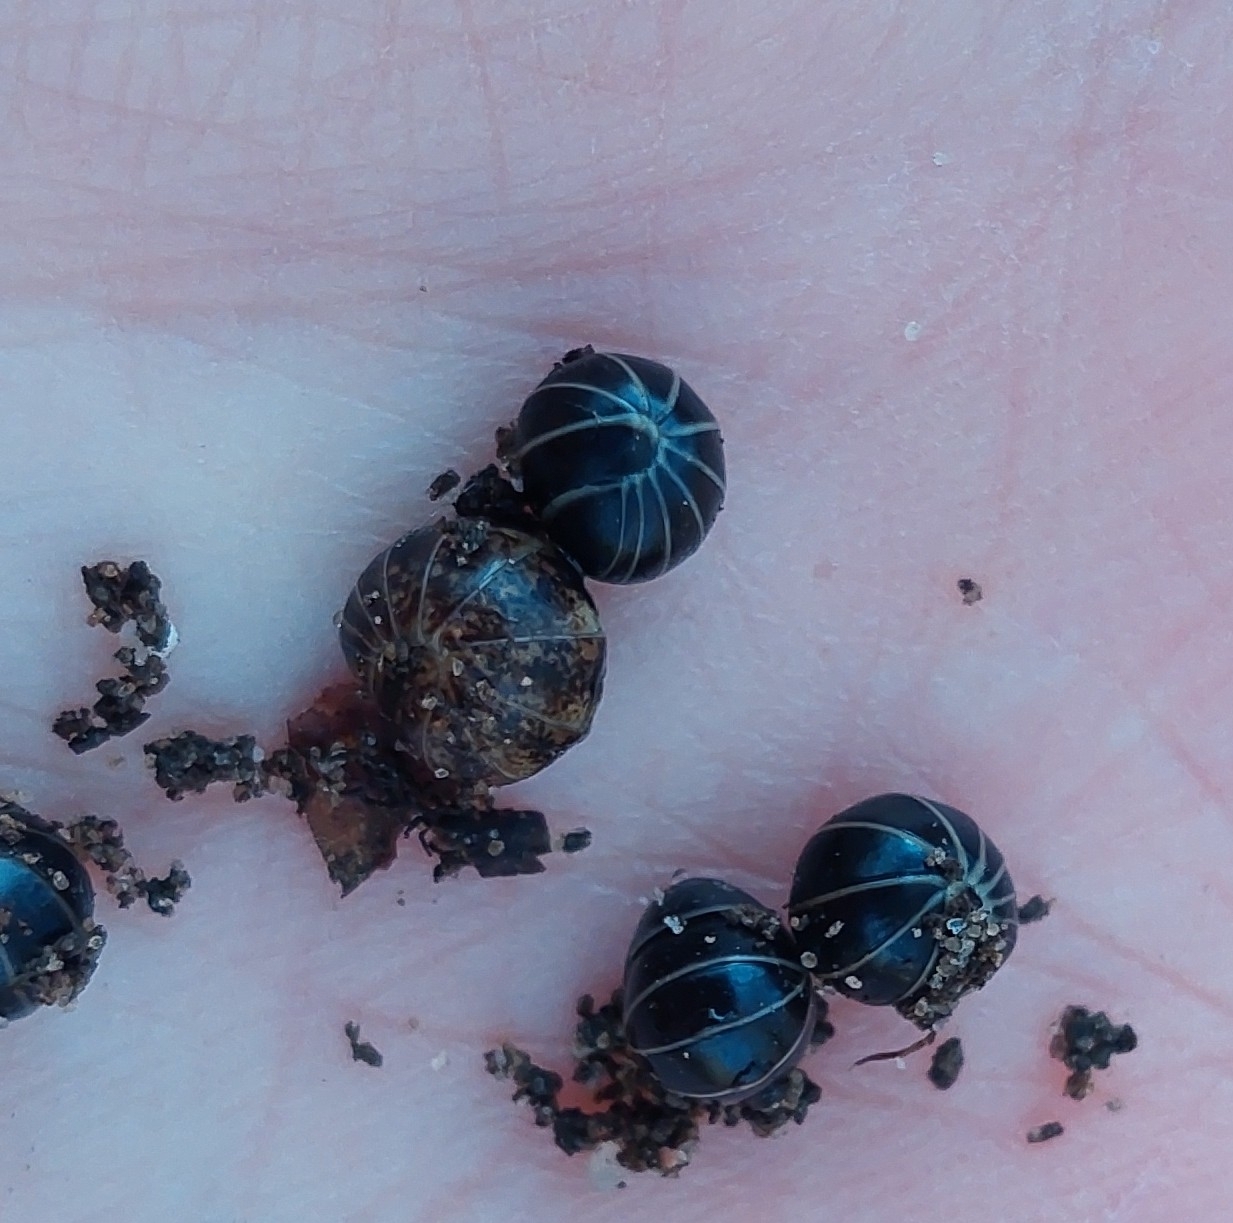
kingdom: Animalia
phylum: Arthropoda
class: Diplopoda
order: Glomerida
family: Glomeridae
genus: Glomeris
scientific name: Glomeris klugii
